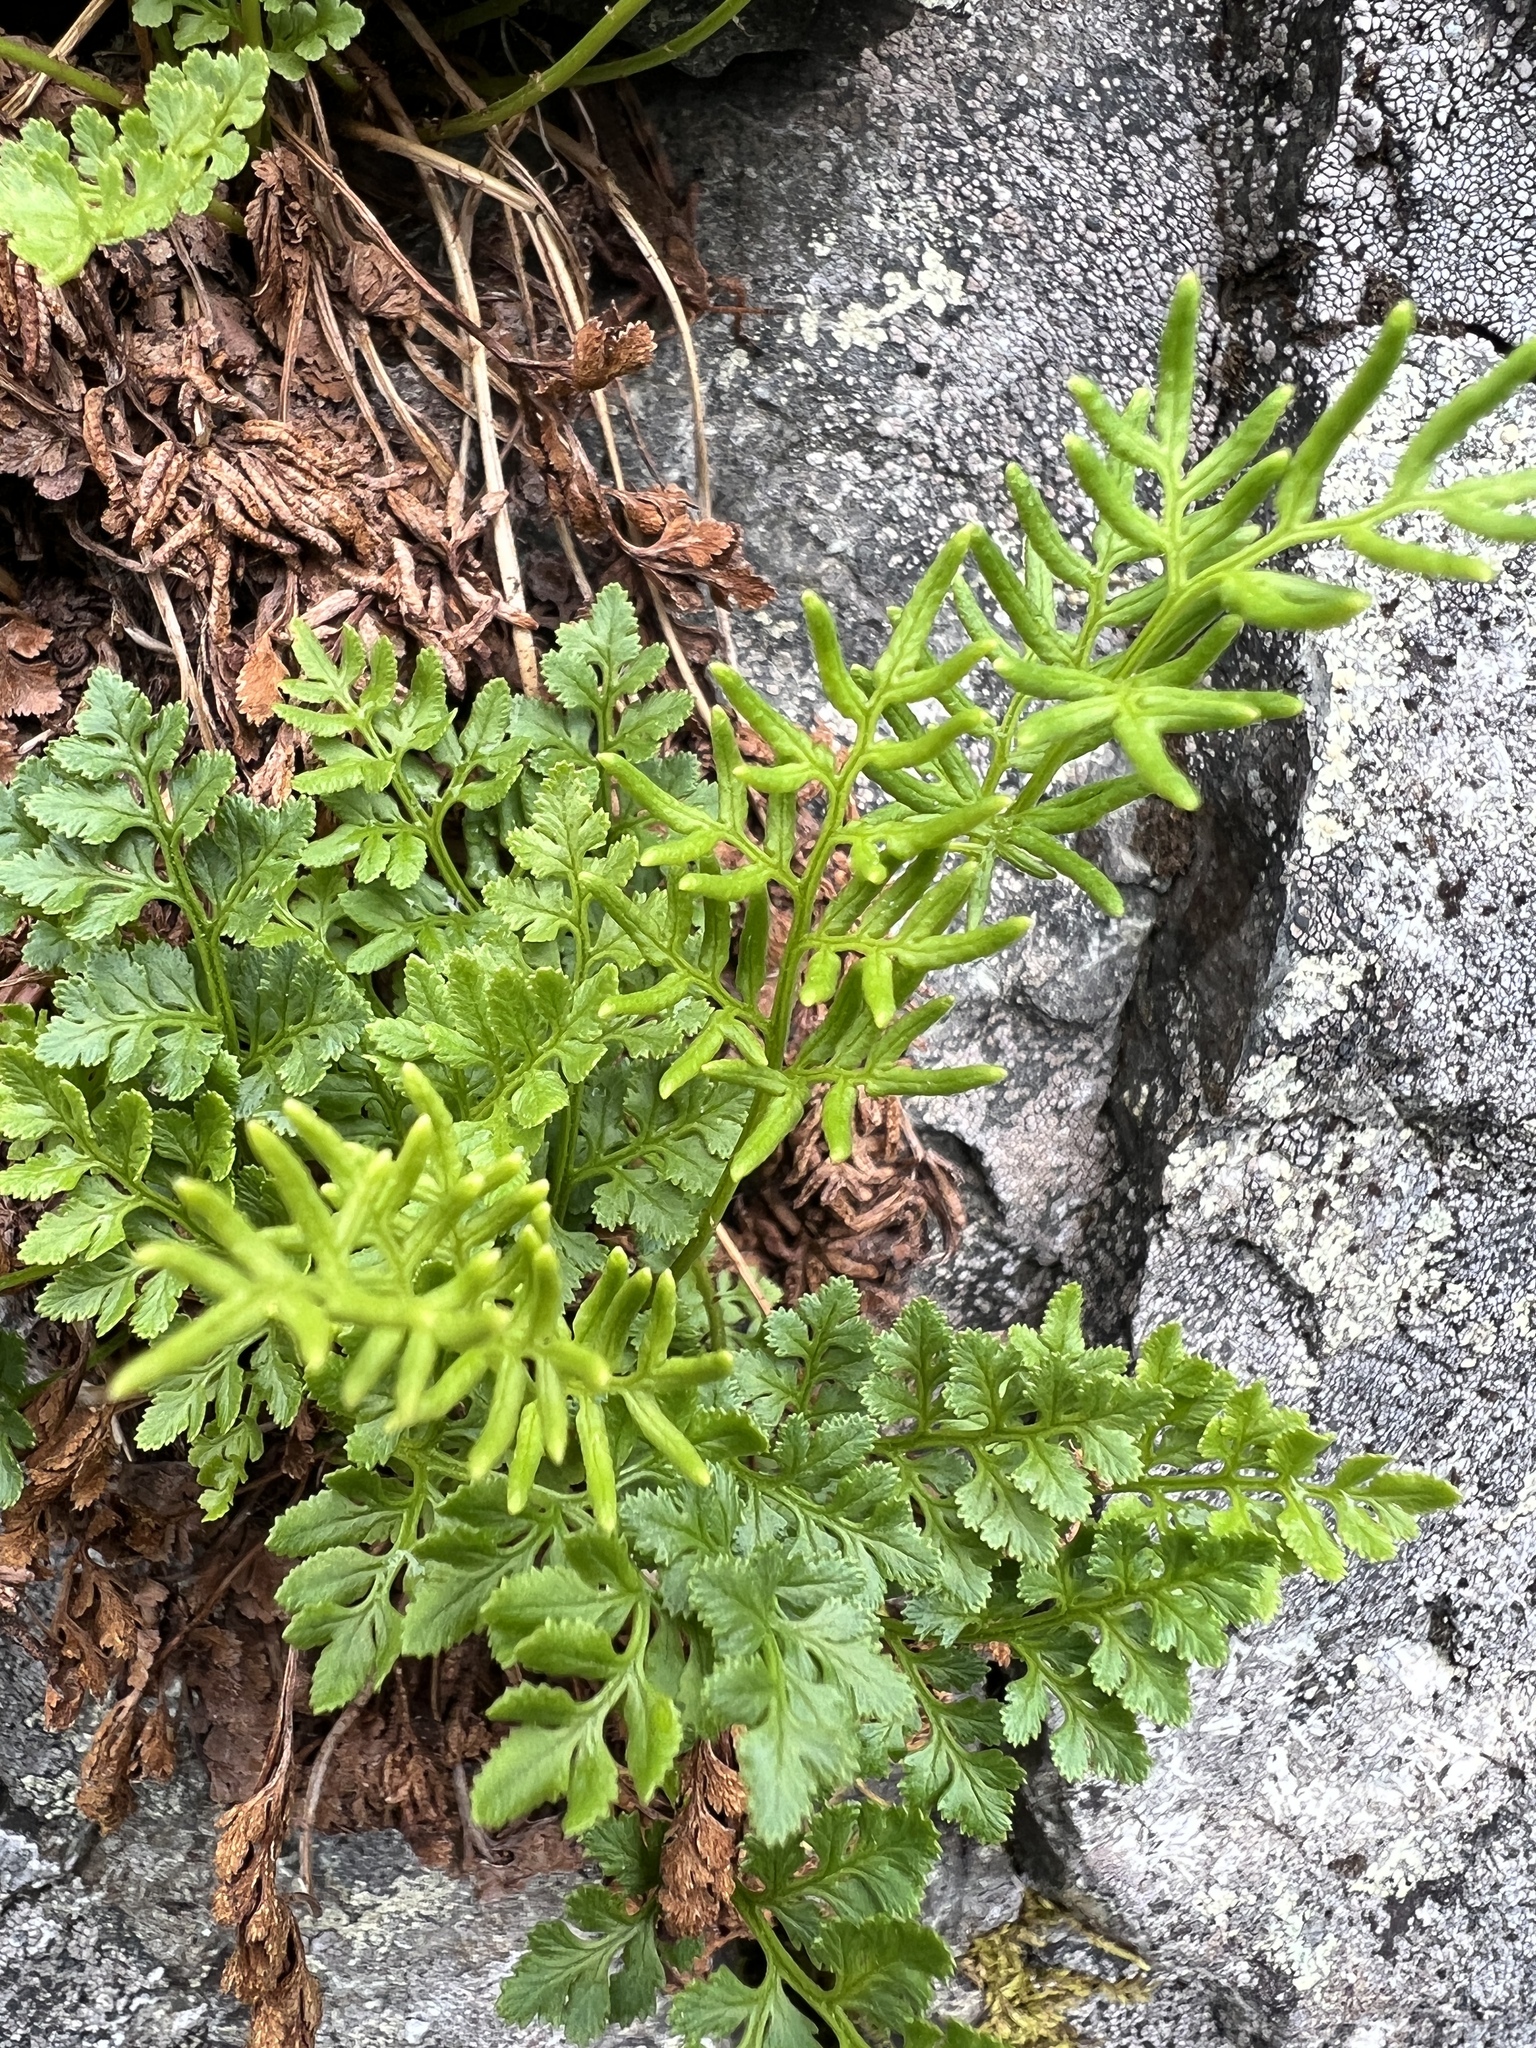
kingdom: Plantae
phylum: Tracheophyta
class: Polypodiopsida
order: Polypodiales
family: Pteridaceae
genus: Cryptogramma
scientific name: Cryptogramma acrostichoides
